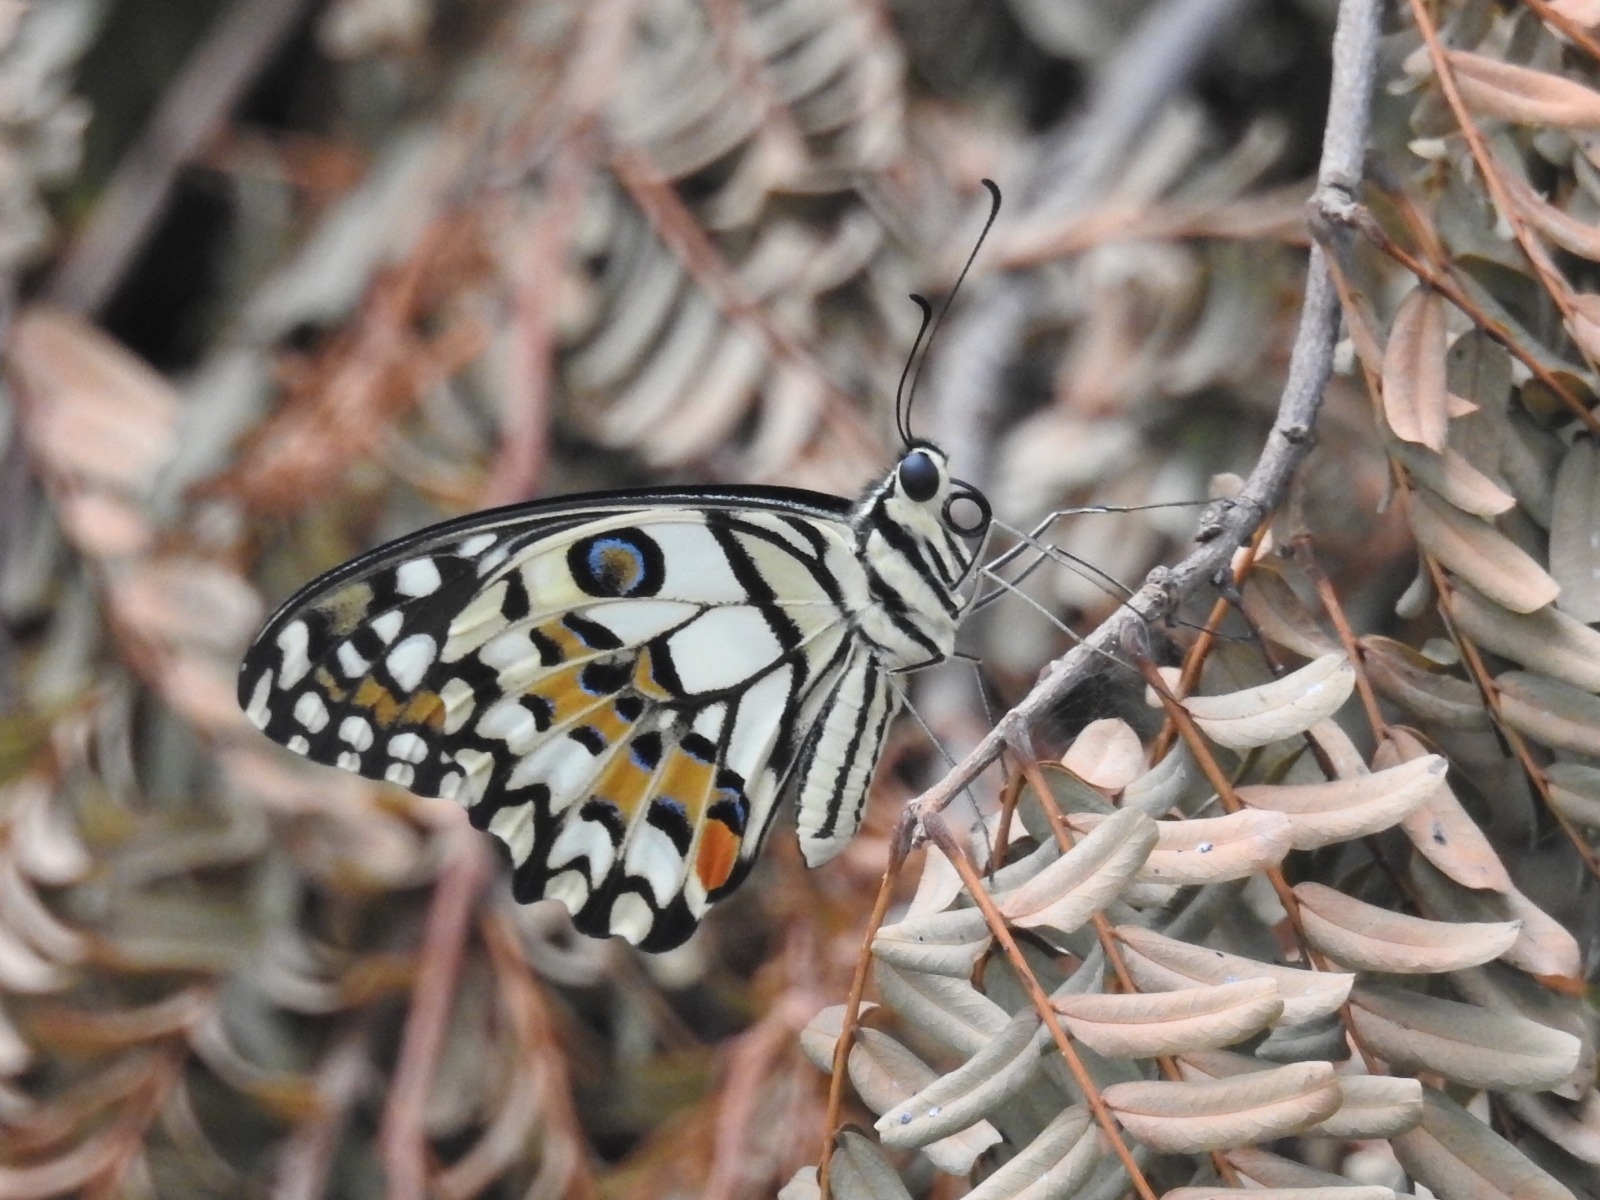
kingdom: Animalia
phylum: Arthropoda
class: Insecta
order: Lepidoptera
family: Papilionidae
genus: Papilio
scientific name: Papilio demoleus
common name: Lime butterfly
